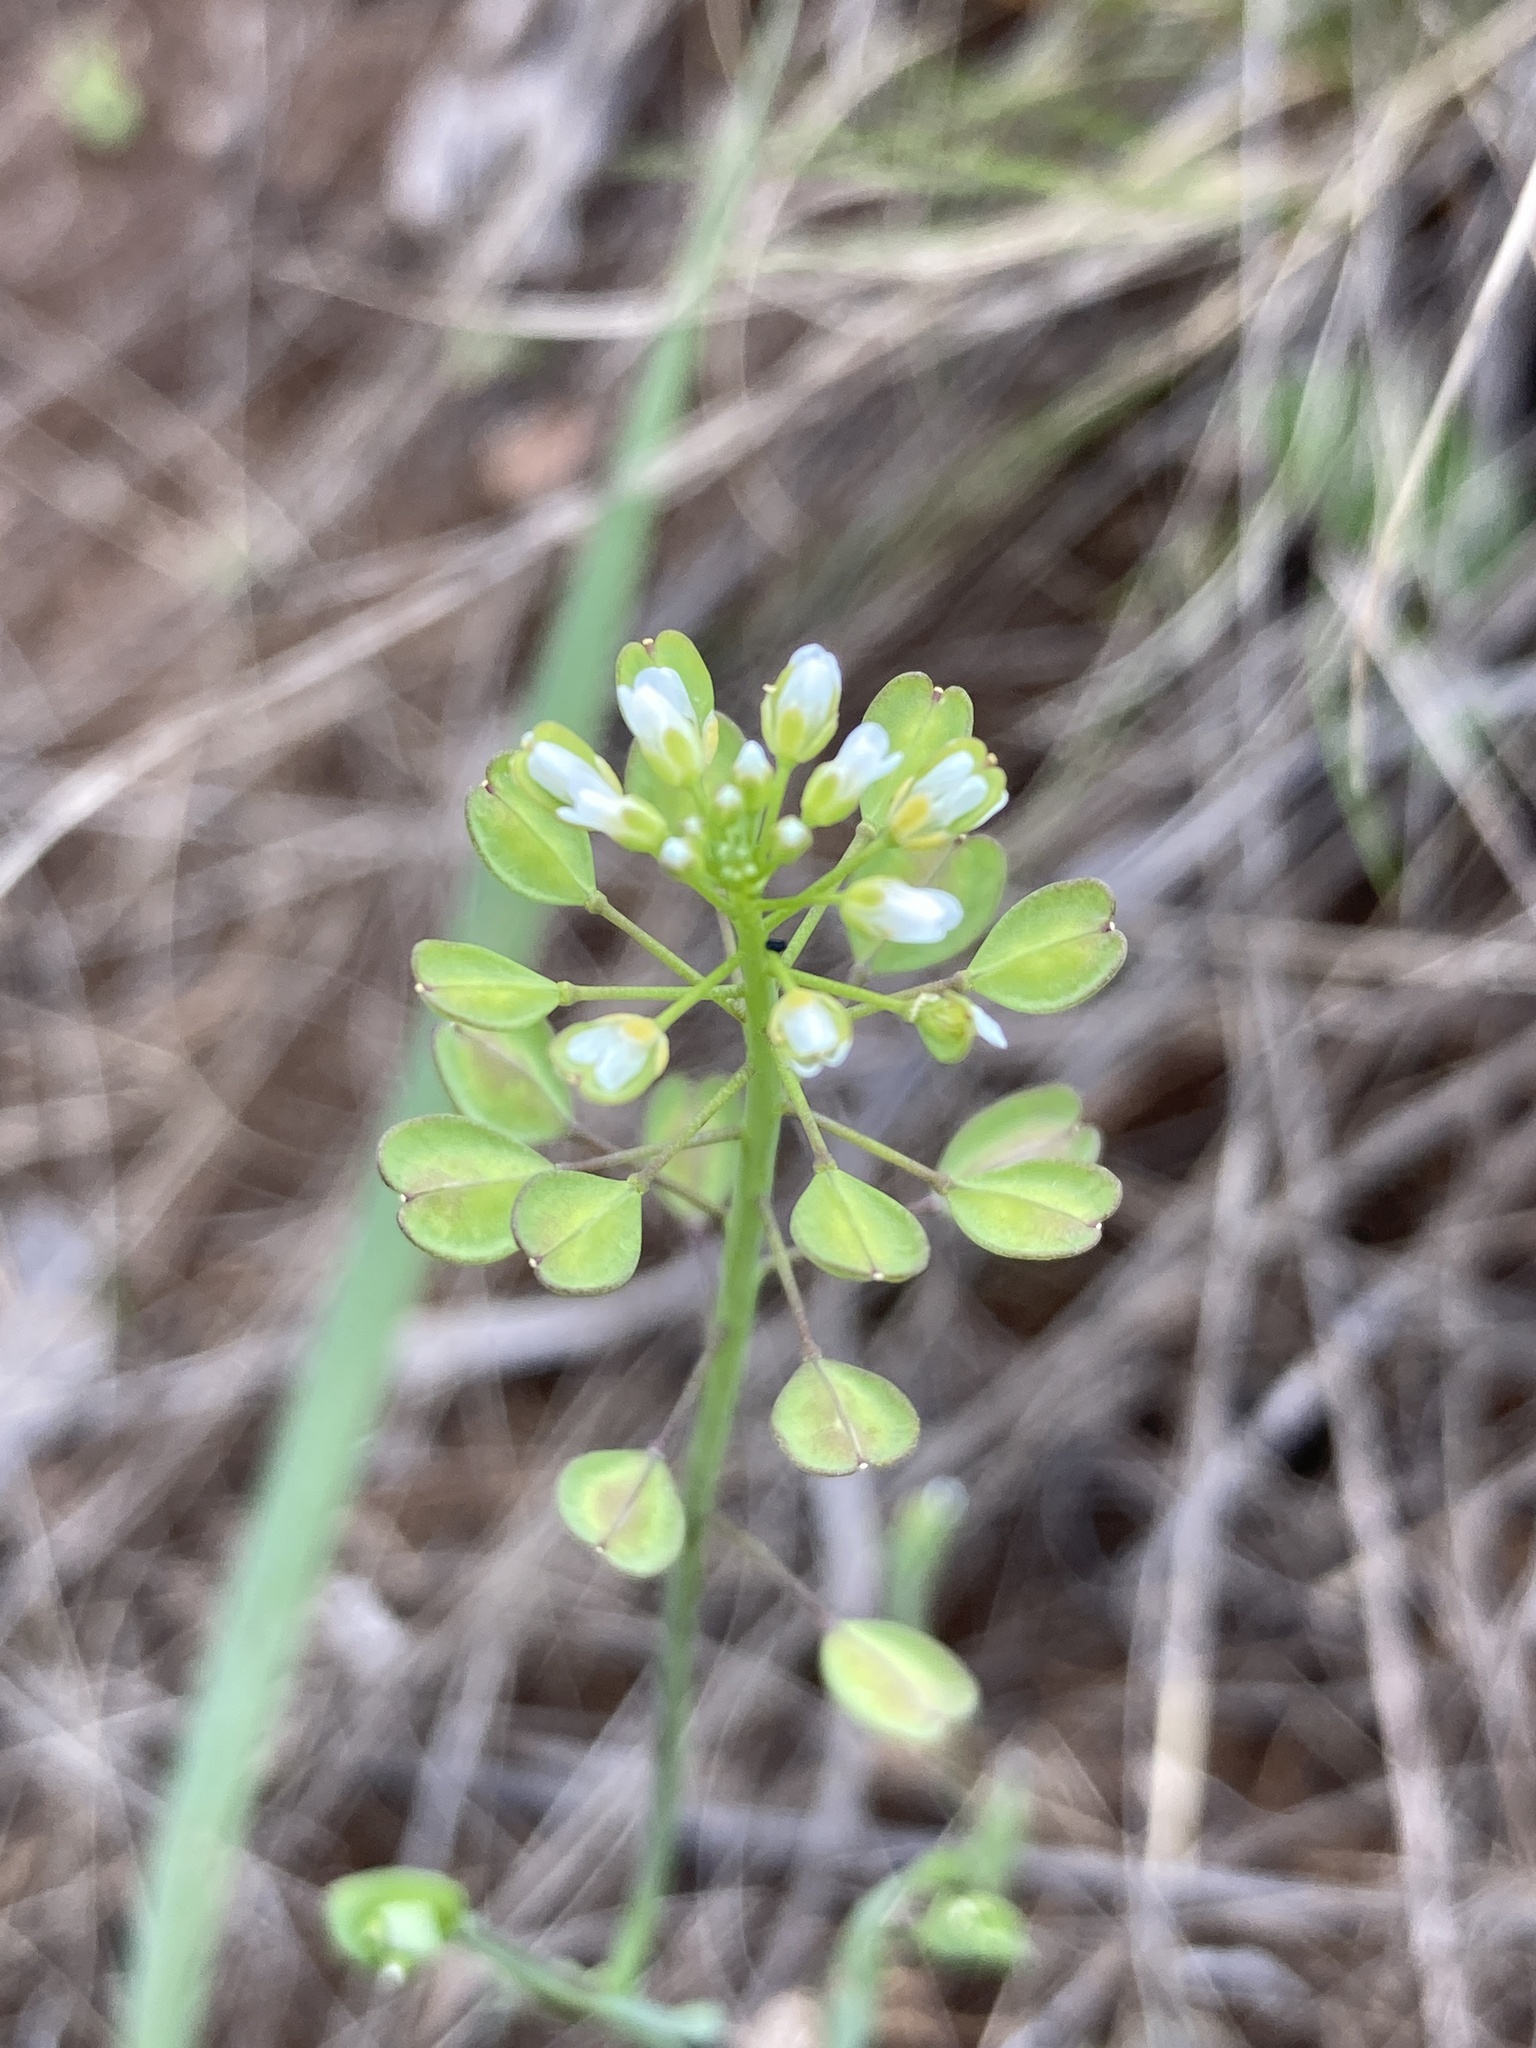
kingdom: Plantae
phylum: Tracheophyta
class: Magnoliopsida
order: Brassicales
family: Brassicaceae
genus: Noccaea
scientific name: Noccaea perfoliata
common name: Perfoliate pennycress
